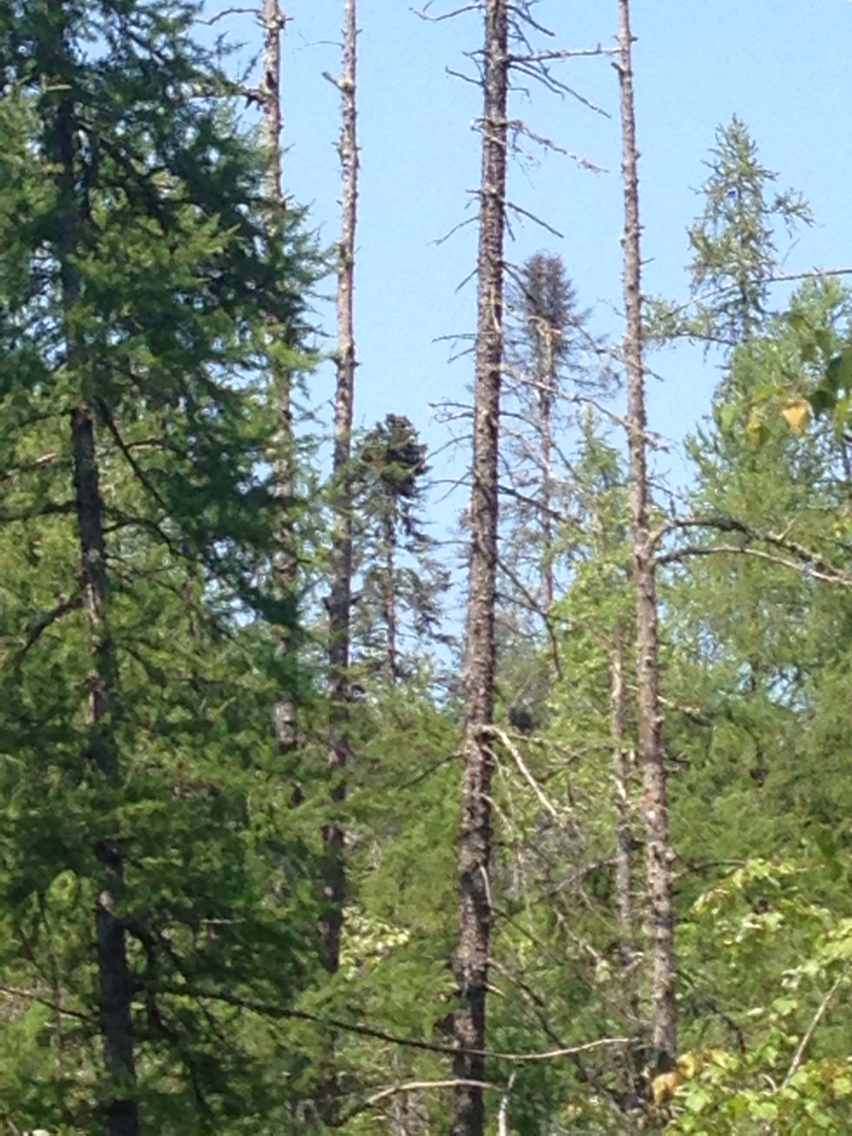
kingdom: Plantae
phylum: Tracheophyta
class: Pinopsida
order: Pinales
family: Pinaceae
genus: Picea
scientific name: Picea mariana
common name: Black spruce
